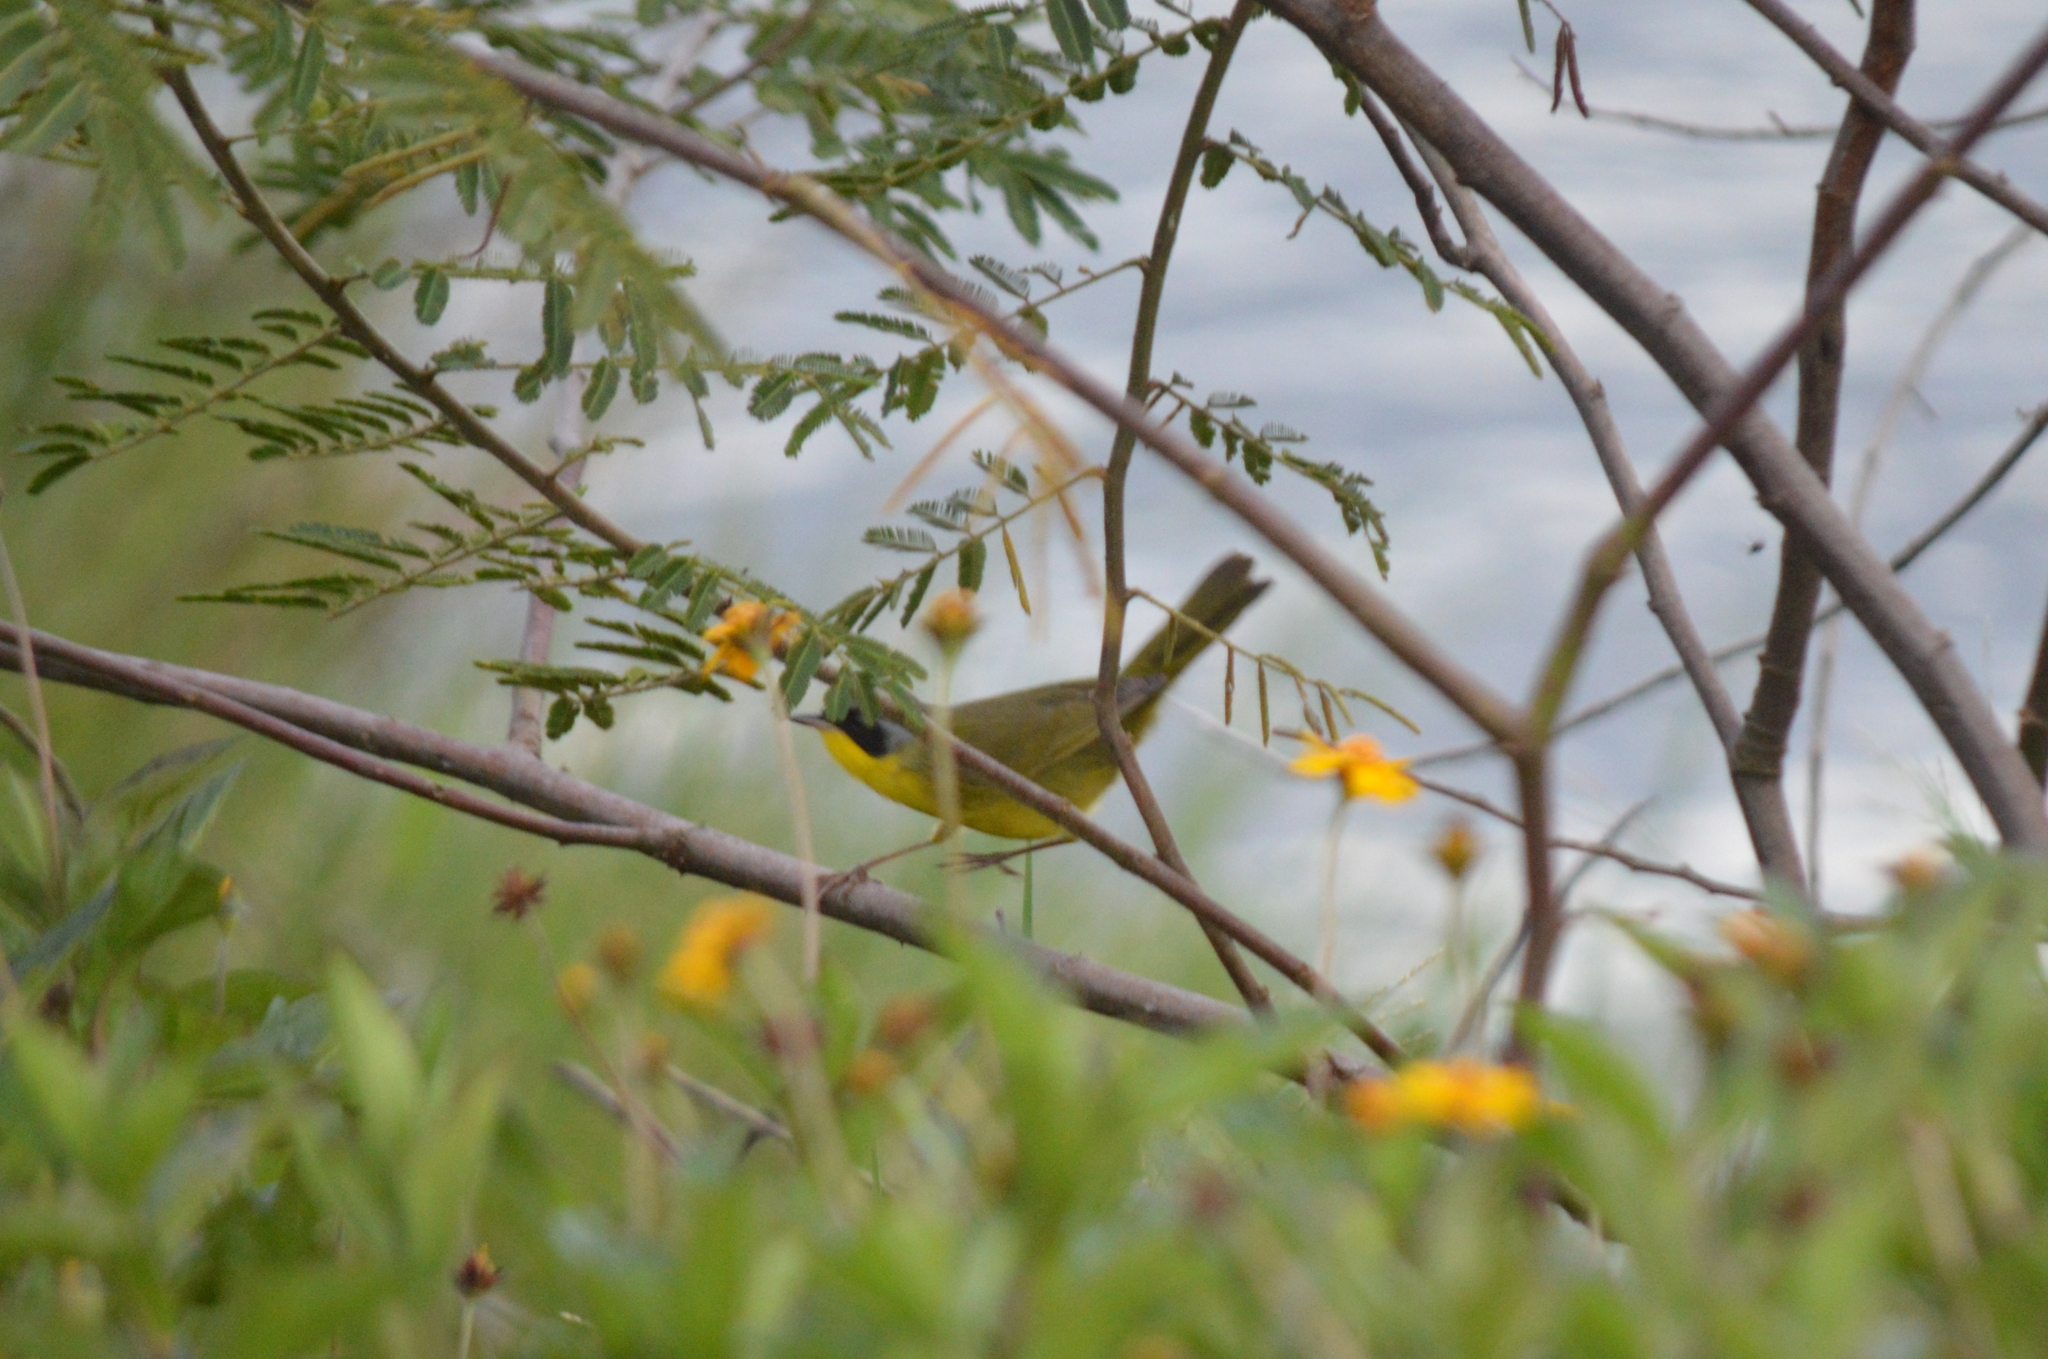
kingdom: Animalia
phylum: Chordata
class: Aves
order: Passeriformes
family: Parulidae
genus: Geothlypis
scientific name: Geothlypis velata
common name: Southern yellowthroat
